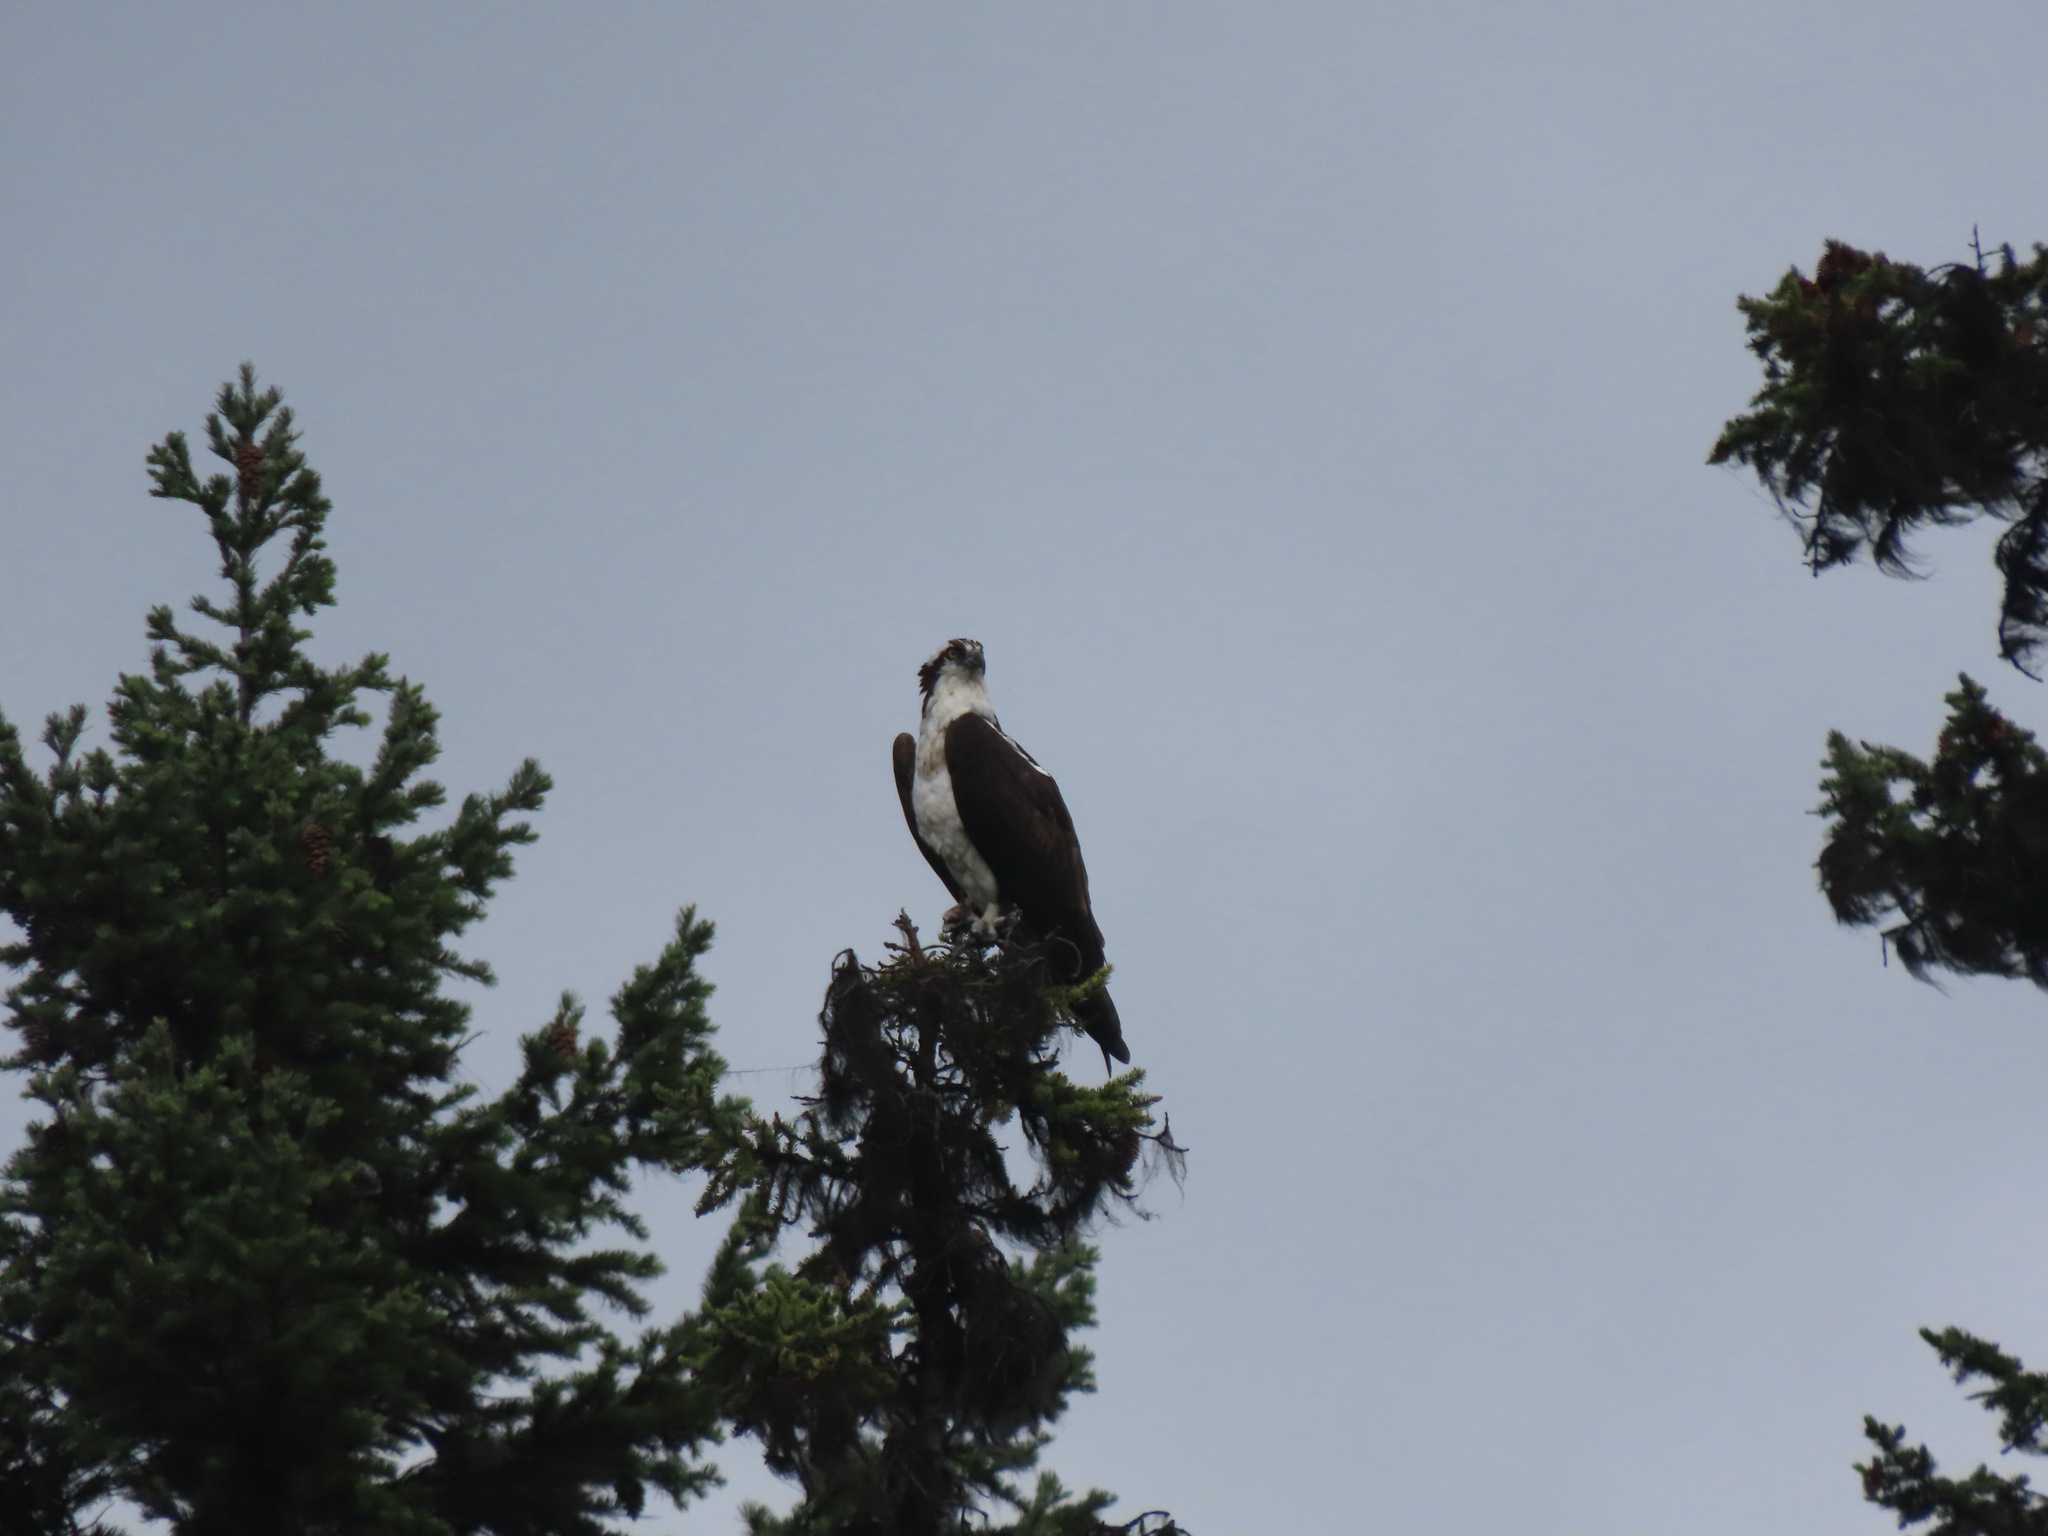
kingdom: Animalia
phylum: Chordata
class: Aves
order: Accipitriformes
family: Pandionidae
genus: Pandion
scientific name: Pandion haliaetus
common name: Osprey
